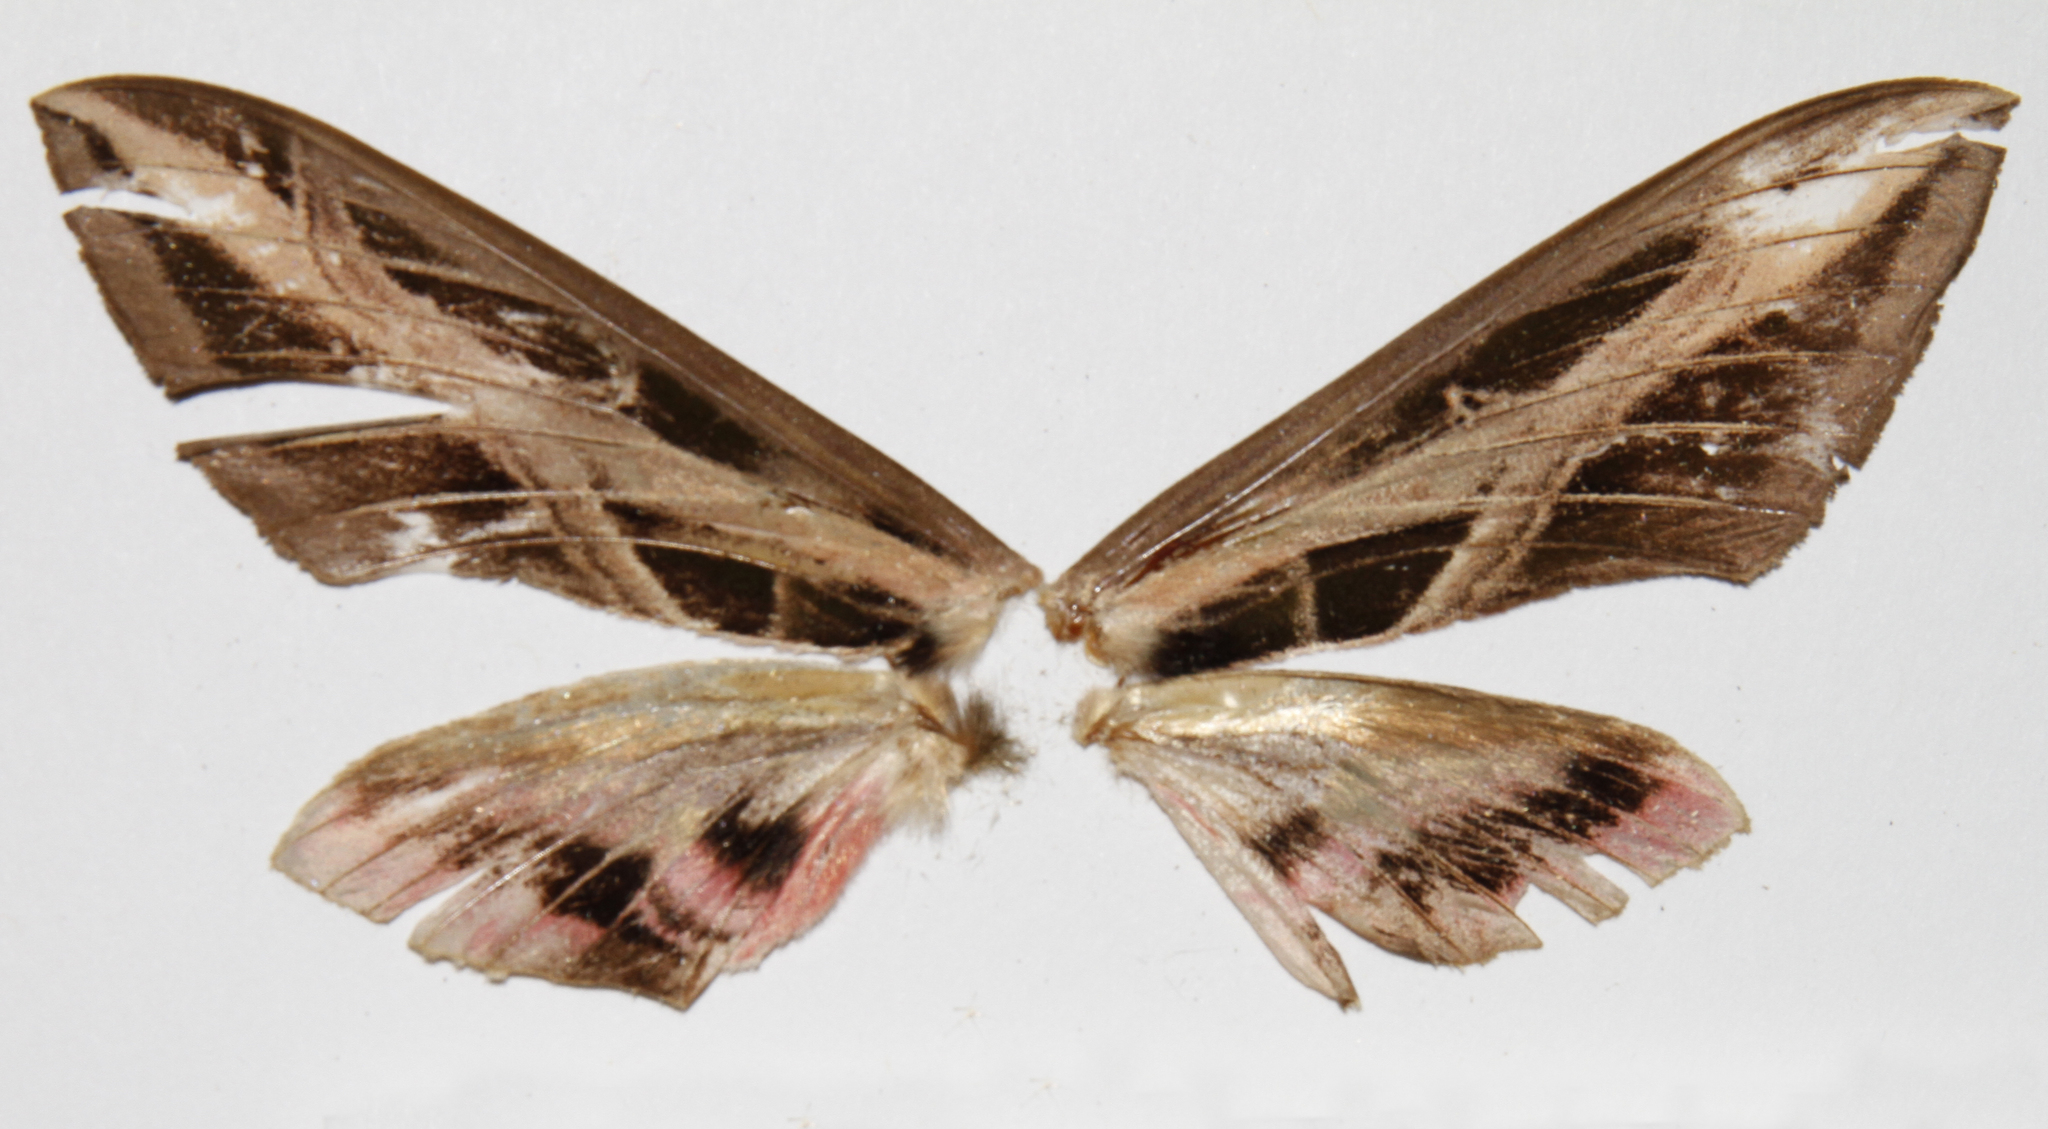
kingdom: Animalia
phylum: Arthropoda
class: Insecta
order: Lepidoptera
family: Sphingidae
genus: Eumorpha
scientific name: Eumorpha fasciatus
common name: Banded sphinx
